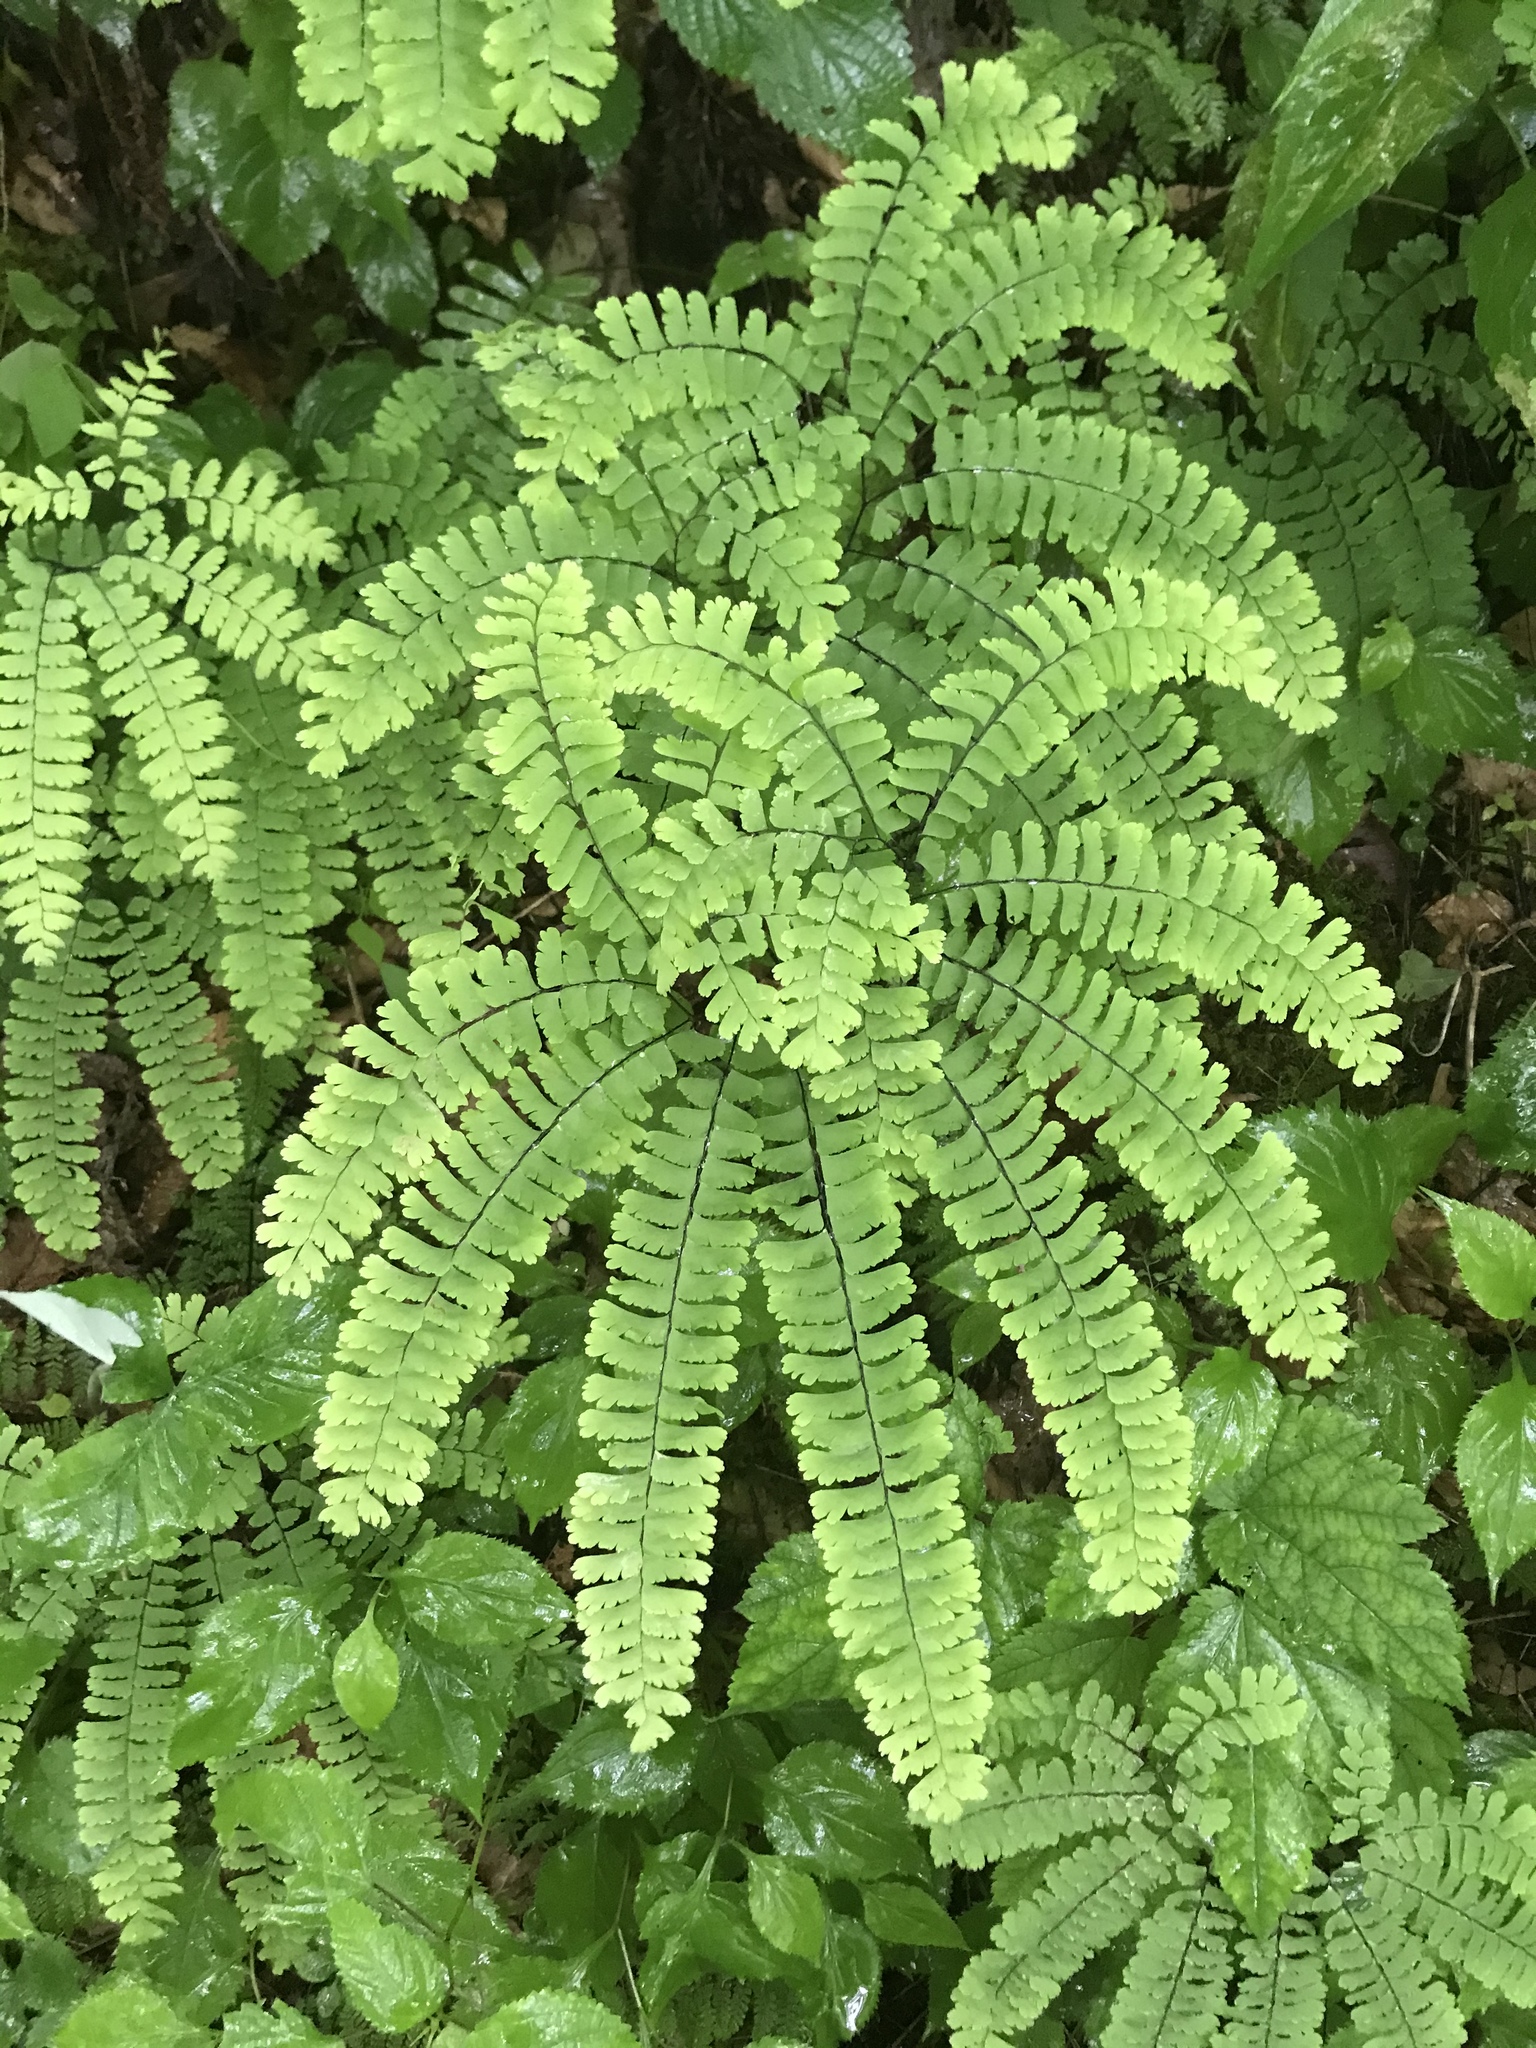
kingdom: Plantae
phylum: Tracheophyta
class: Polypodiopsida
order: Polypodiales
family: Pteridaceae
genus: Adiantum
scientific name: Adiantum pedatum
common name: Five-finger fern
